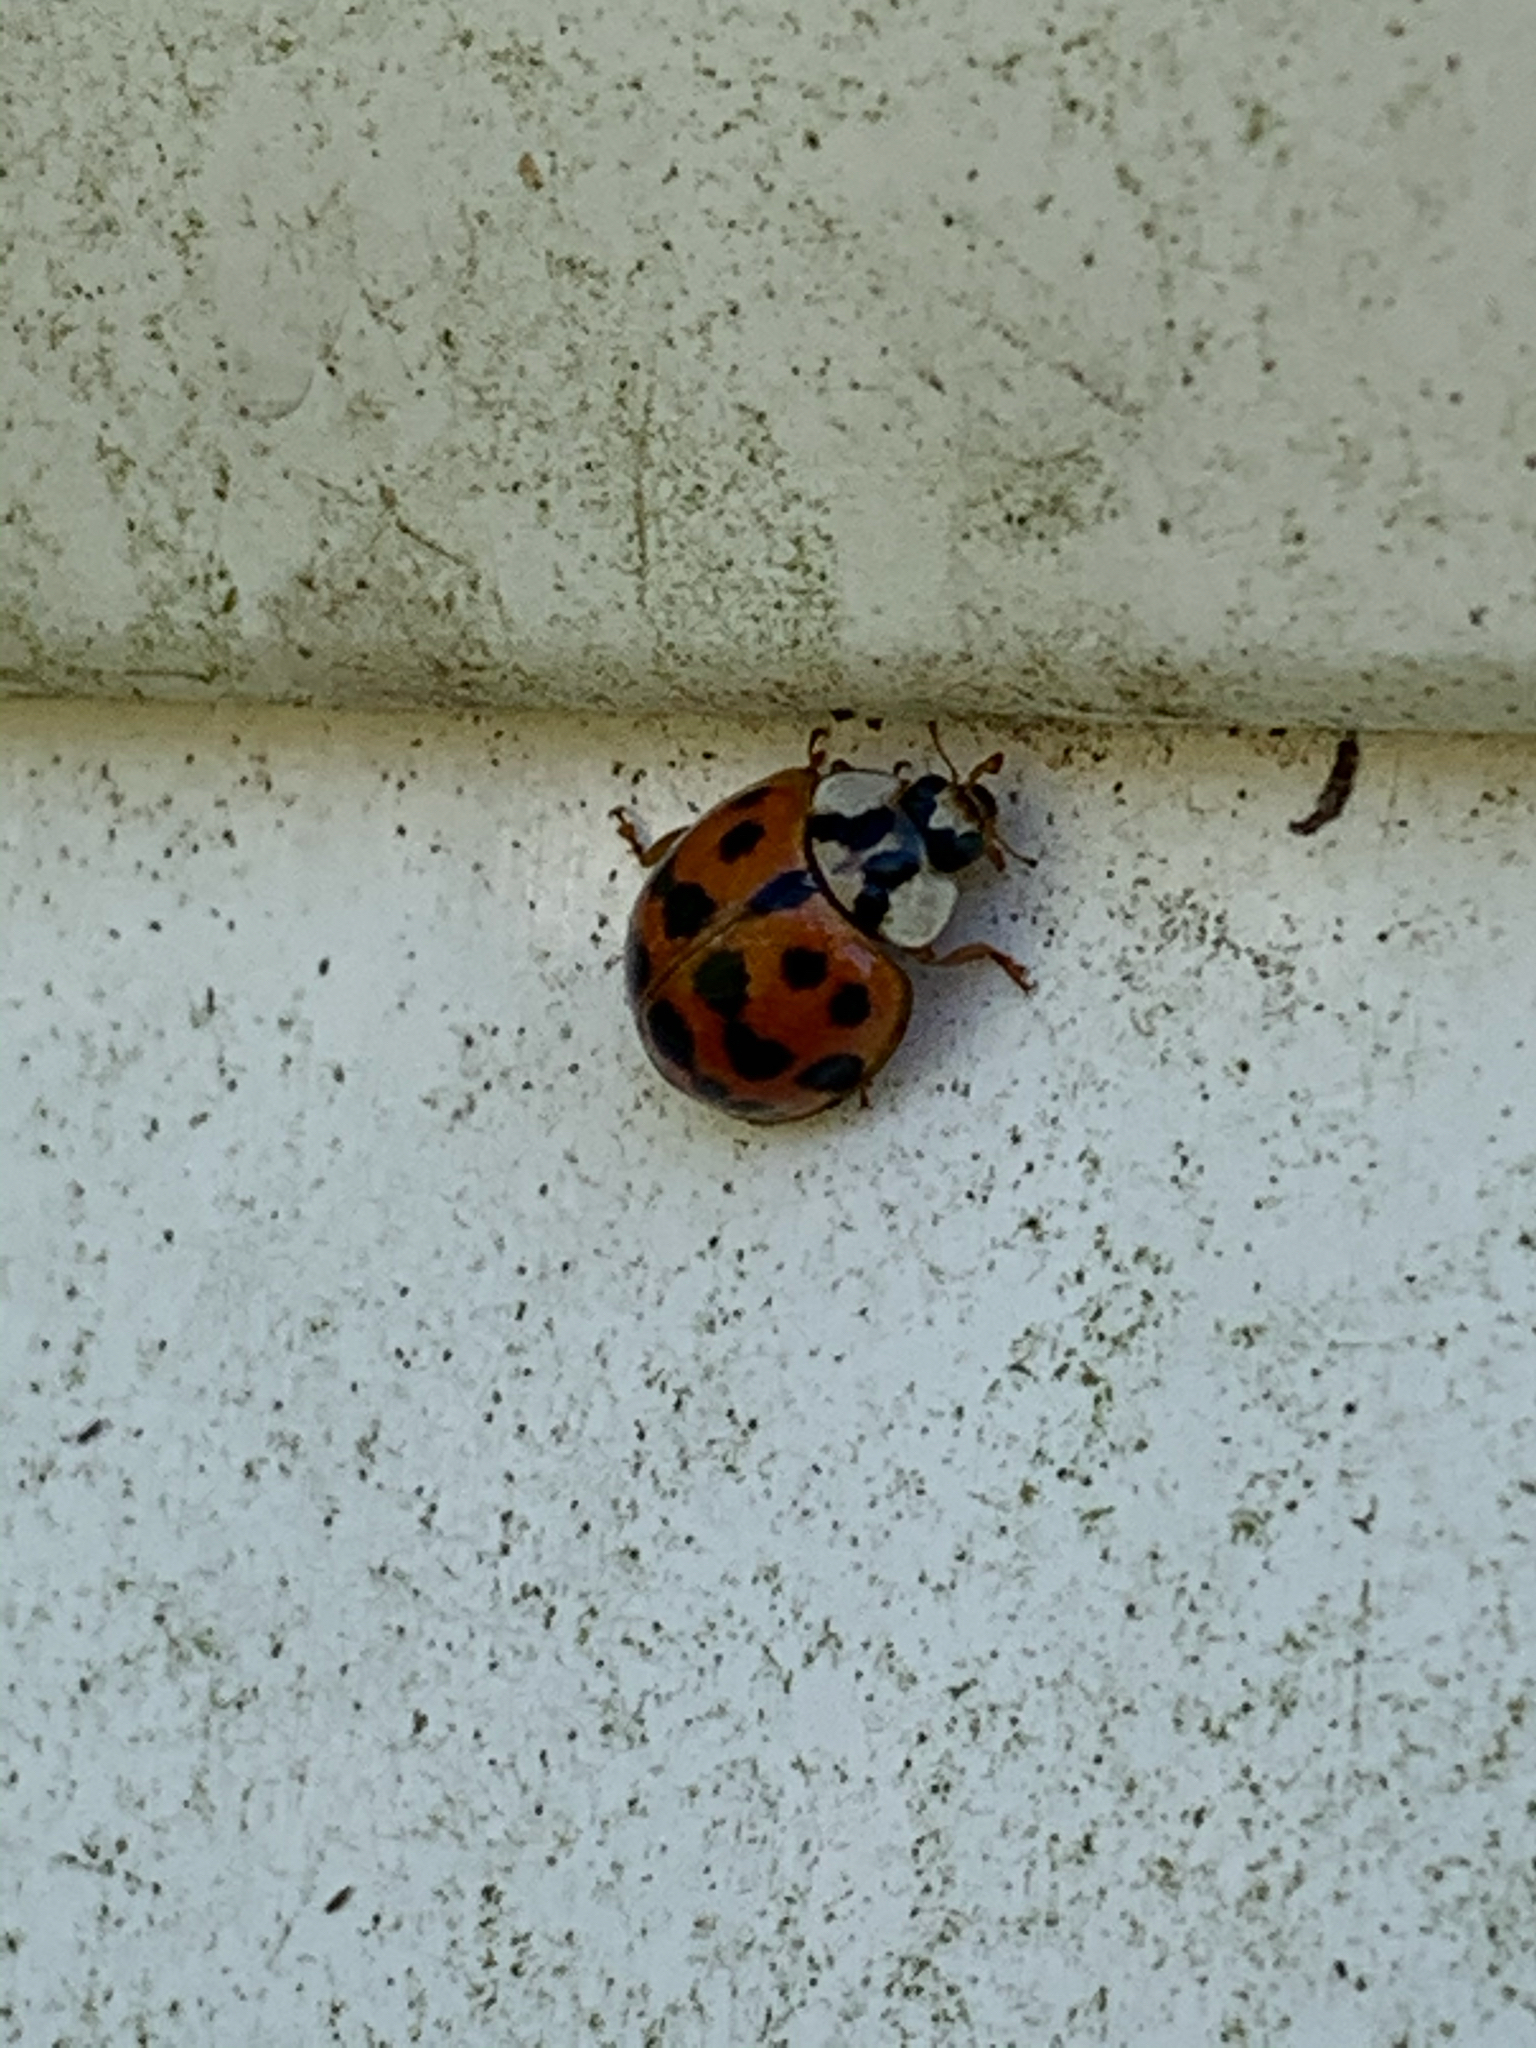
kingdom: Animalia
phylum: Arthropoda
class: Insecta
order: Coleoptera
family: Coccinellidae
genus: Harmonia
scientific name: Harmonia axyridis
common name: Harlequin ladybird
